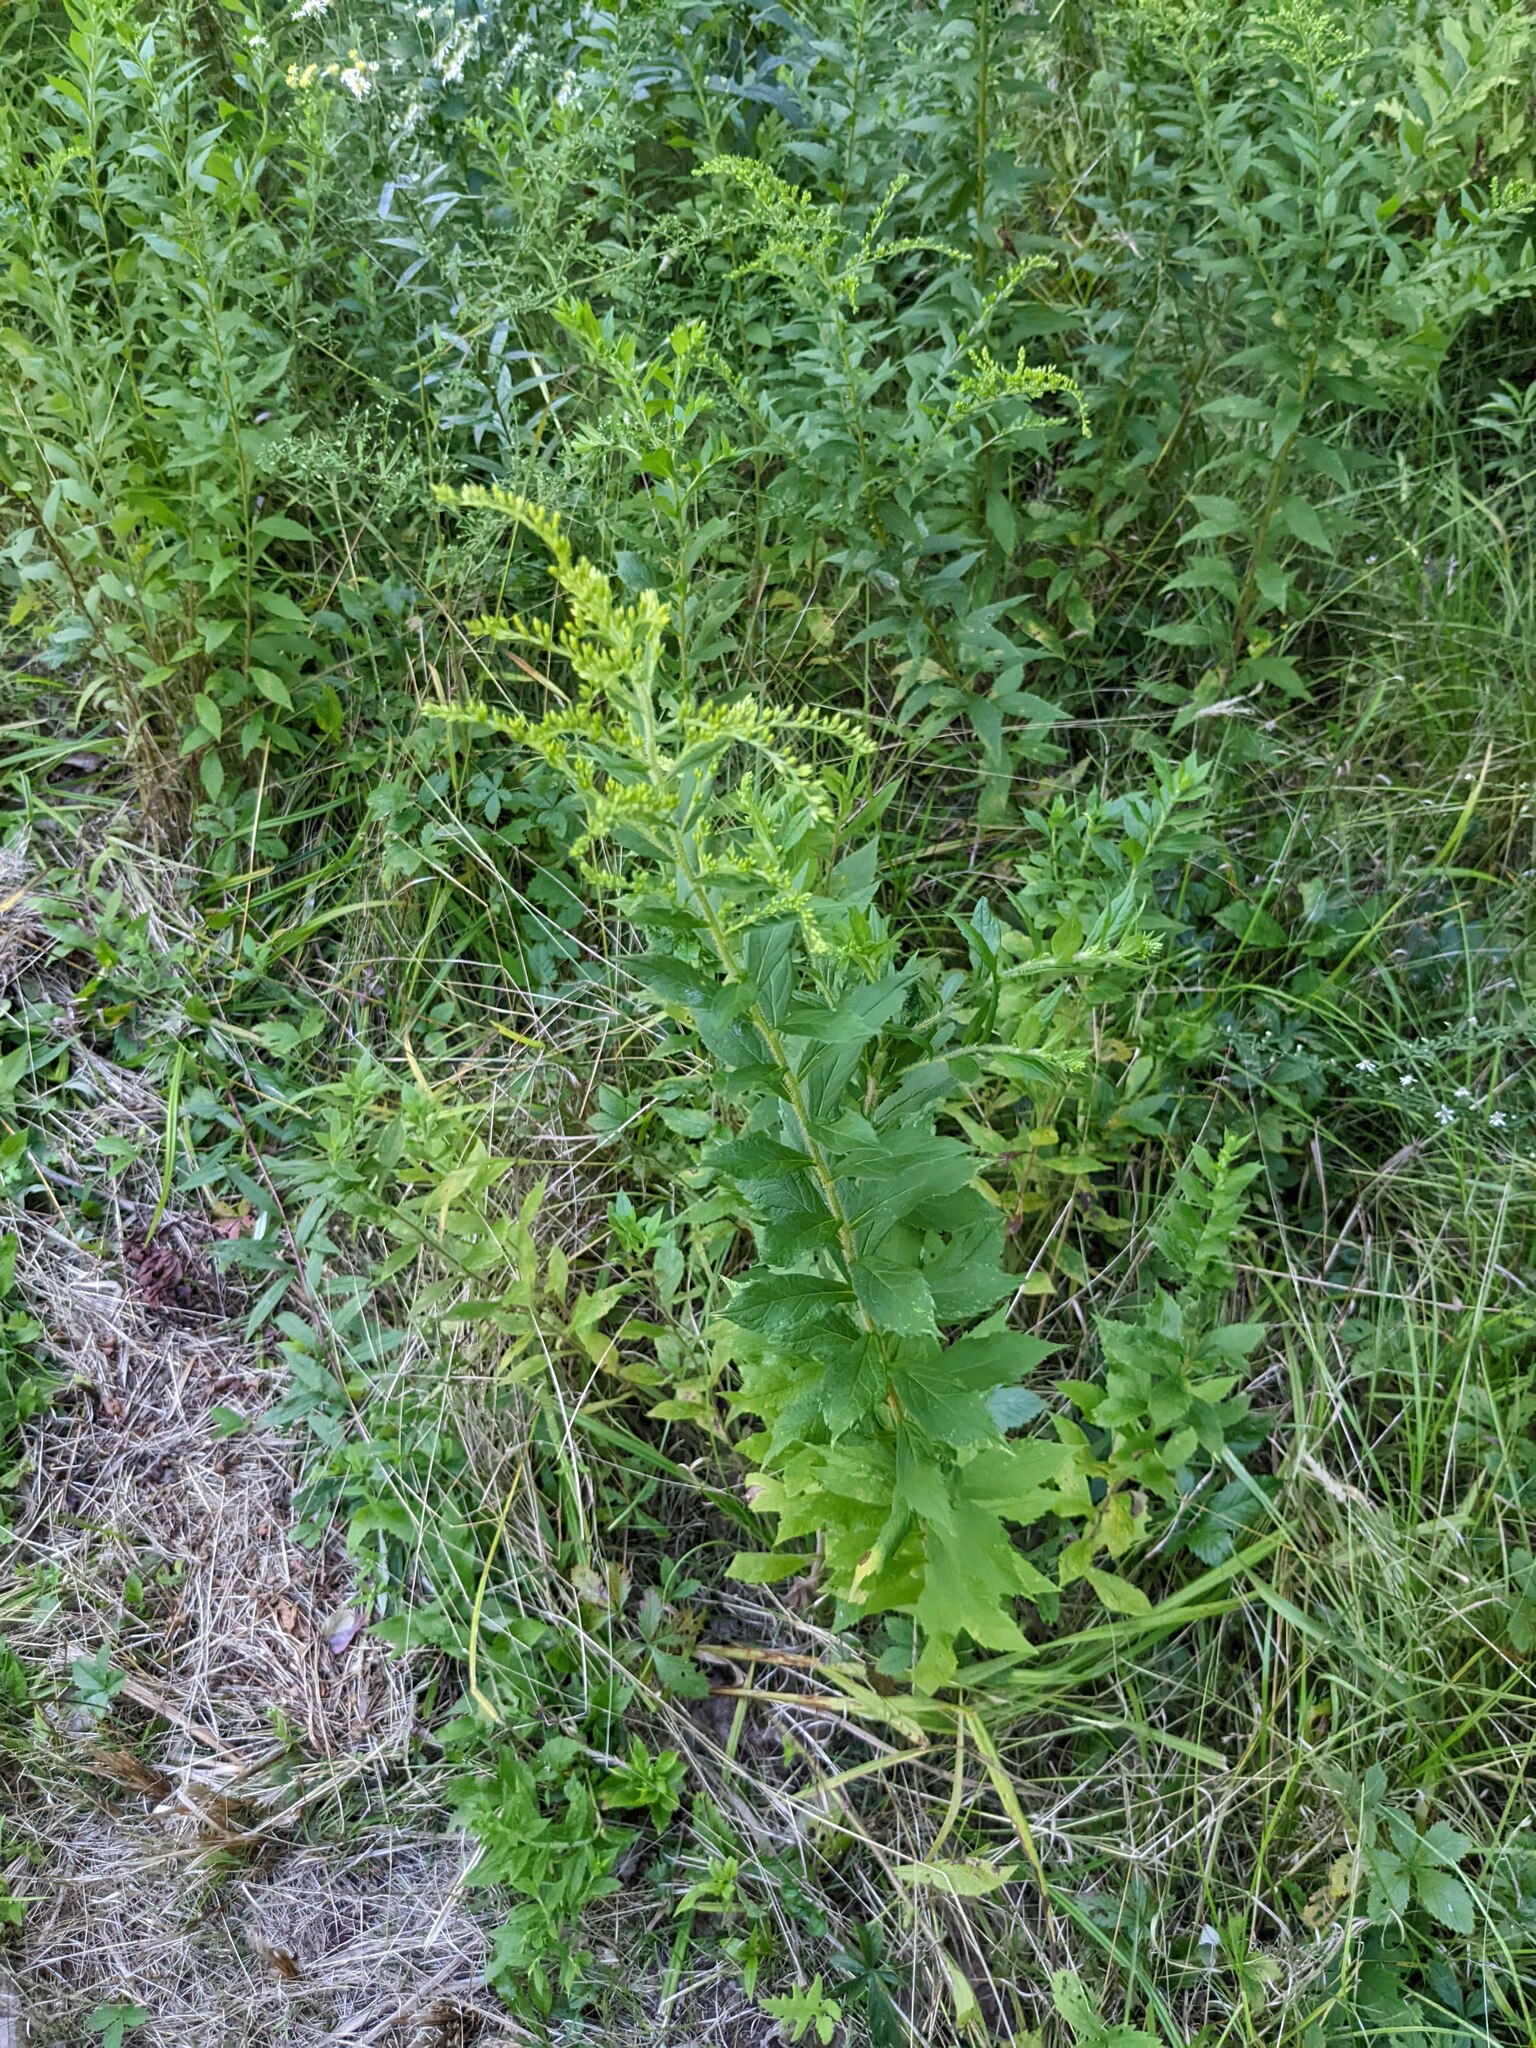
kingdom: Plantae
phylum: Tracheophyta
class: Magnoliopsida
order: Asterales
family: Asteraceae
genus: Solidago
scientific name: Solidago rugosa
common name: Rough-stemmed goldenrod
